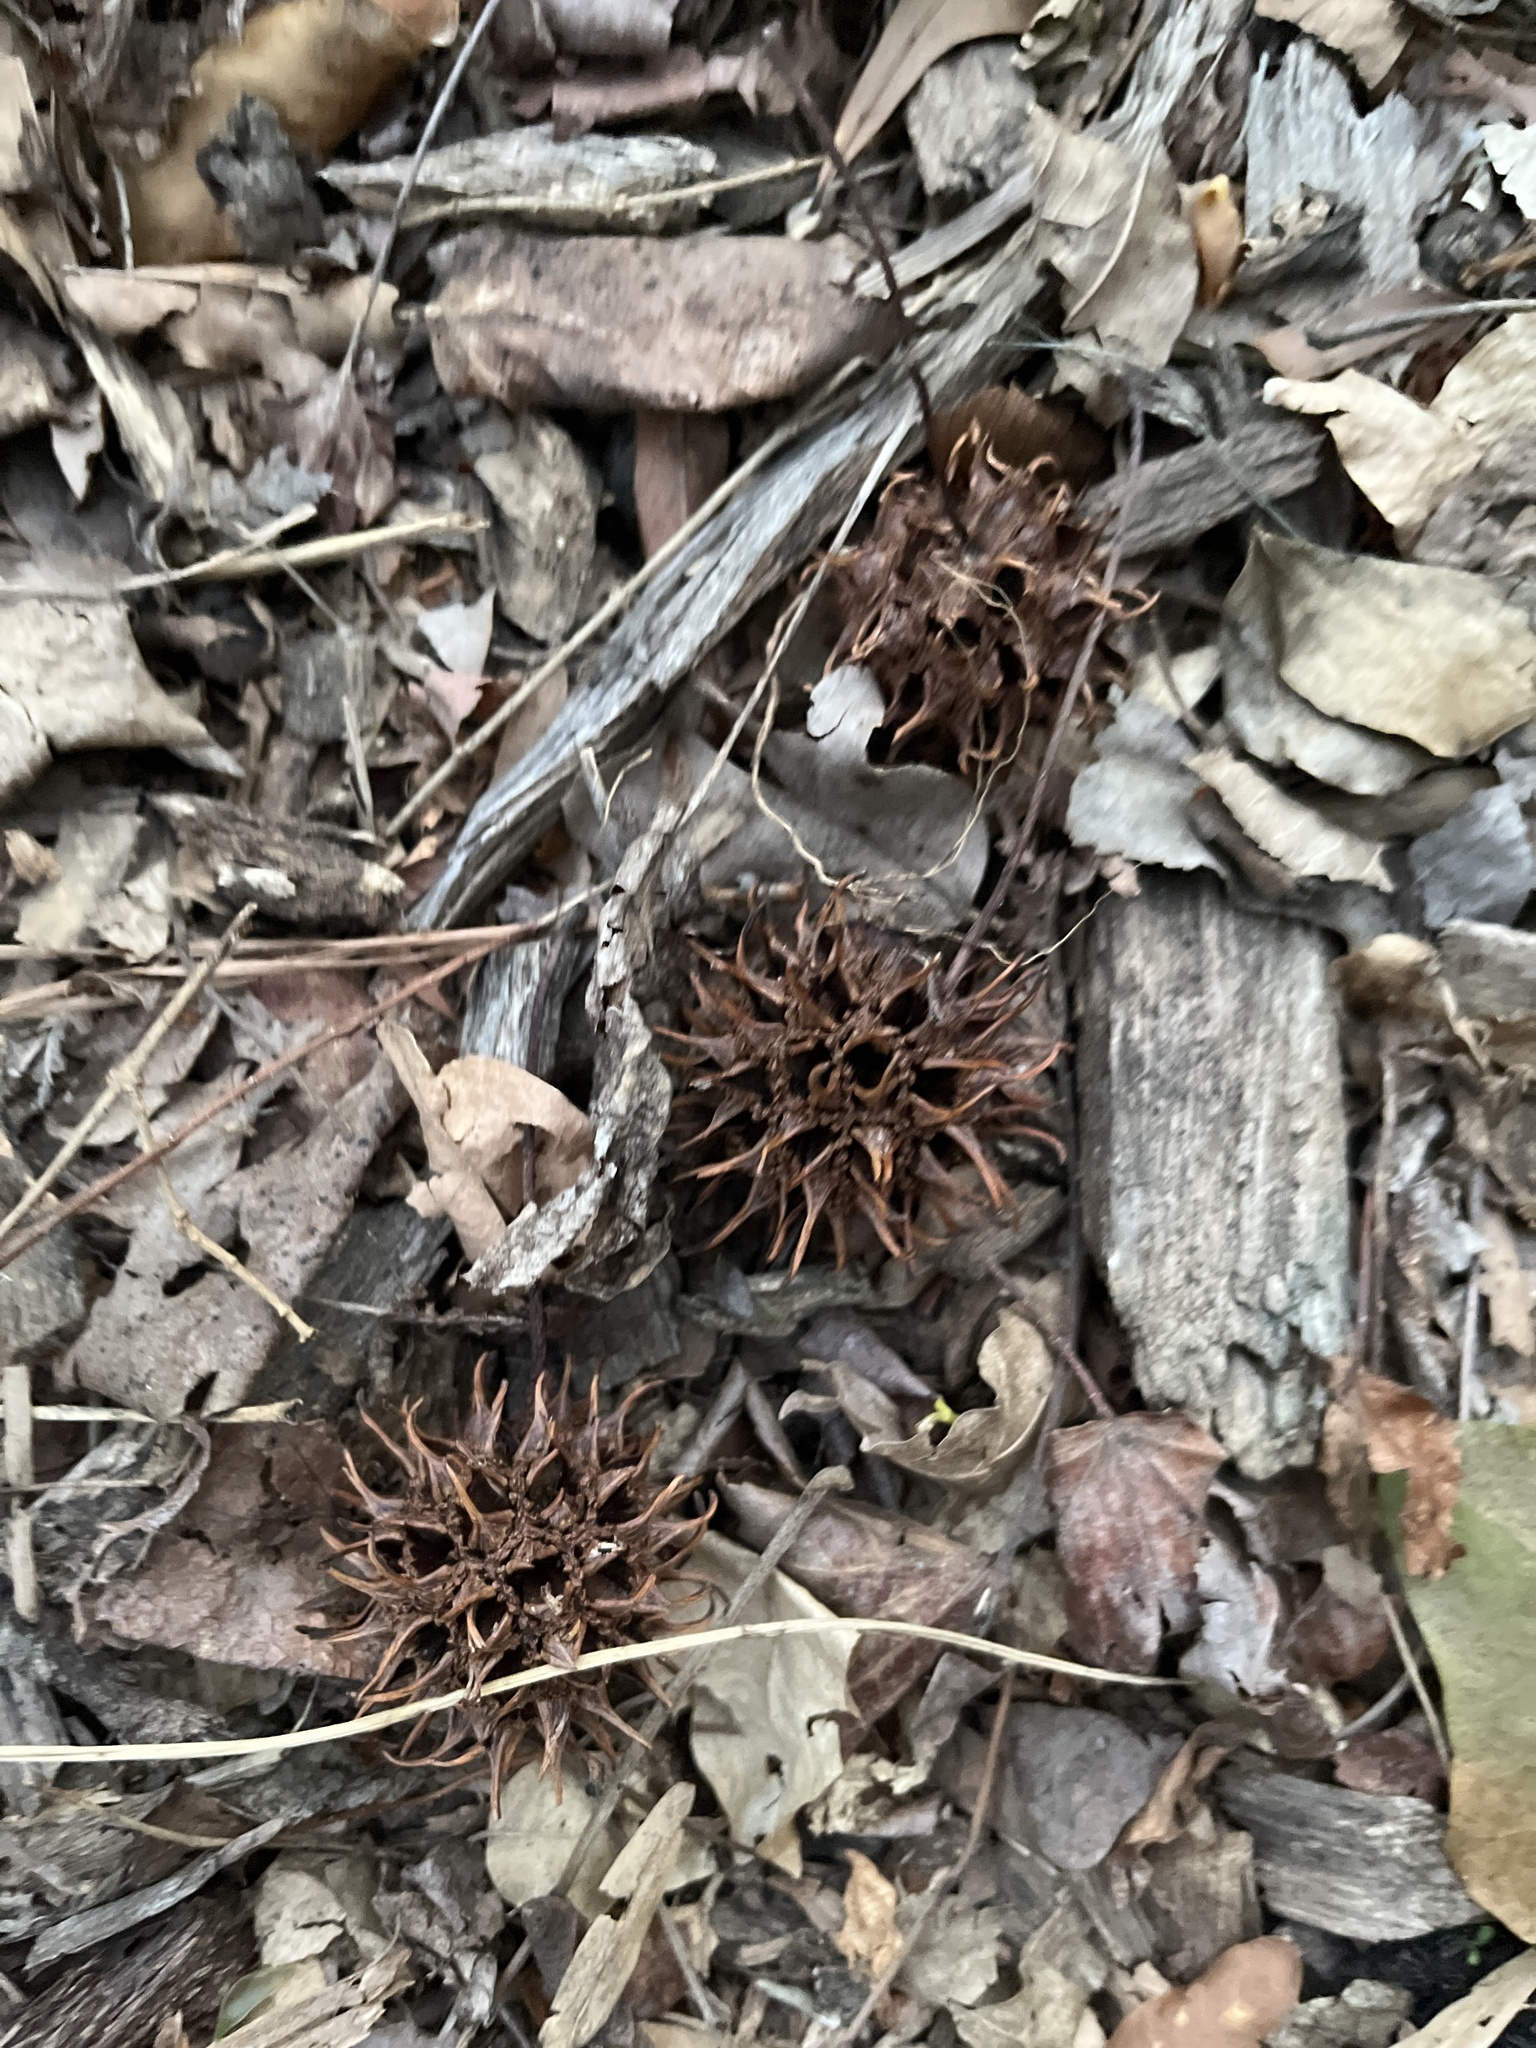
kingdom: Plantae
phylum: Tracheophyta
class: Magnoliopsida
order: Saxifragales
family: Altingiaceae
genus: Liquidambar
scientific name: Liquidambar styraciflua
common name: Sweet gum
